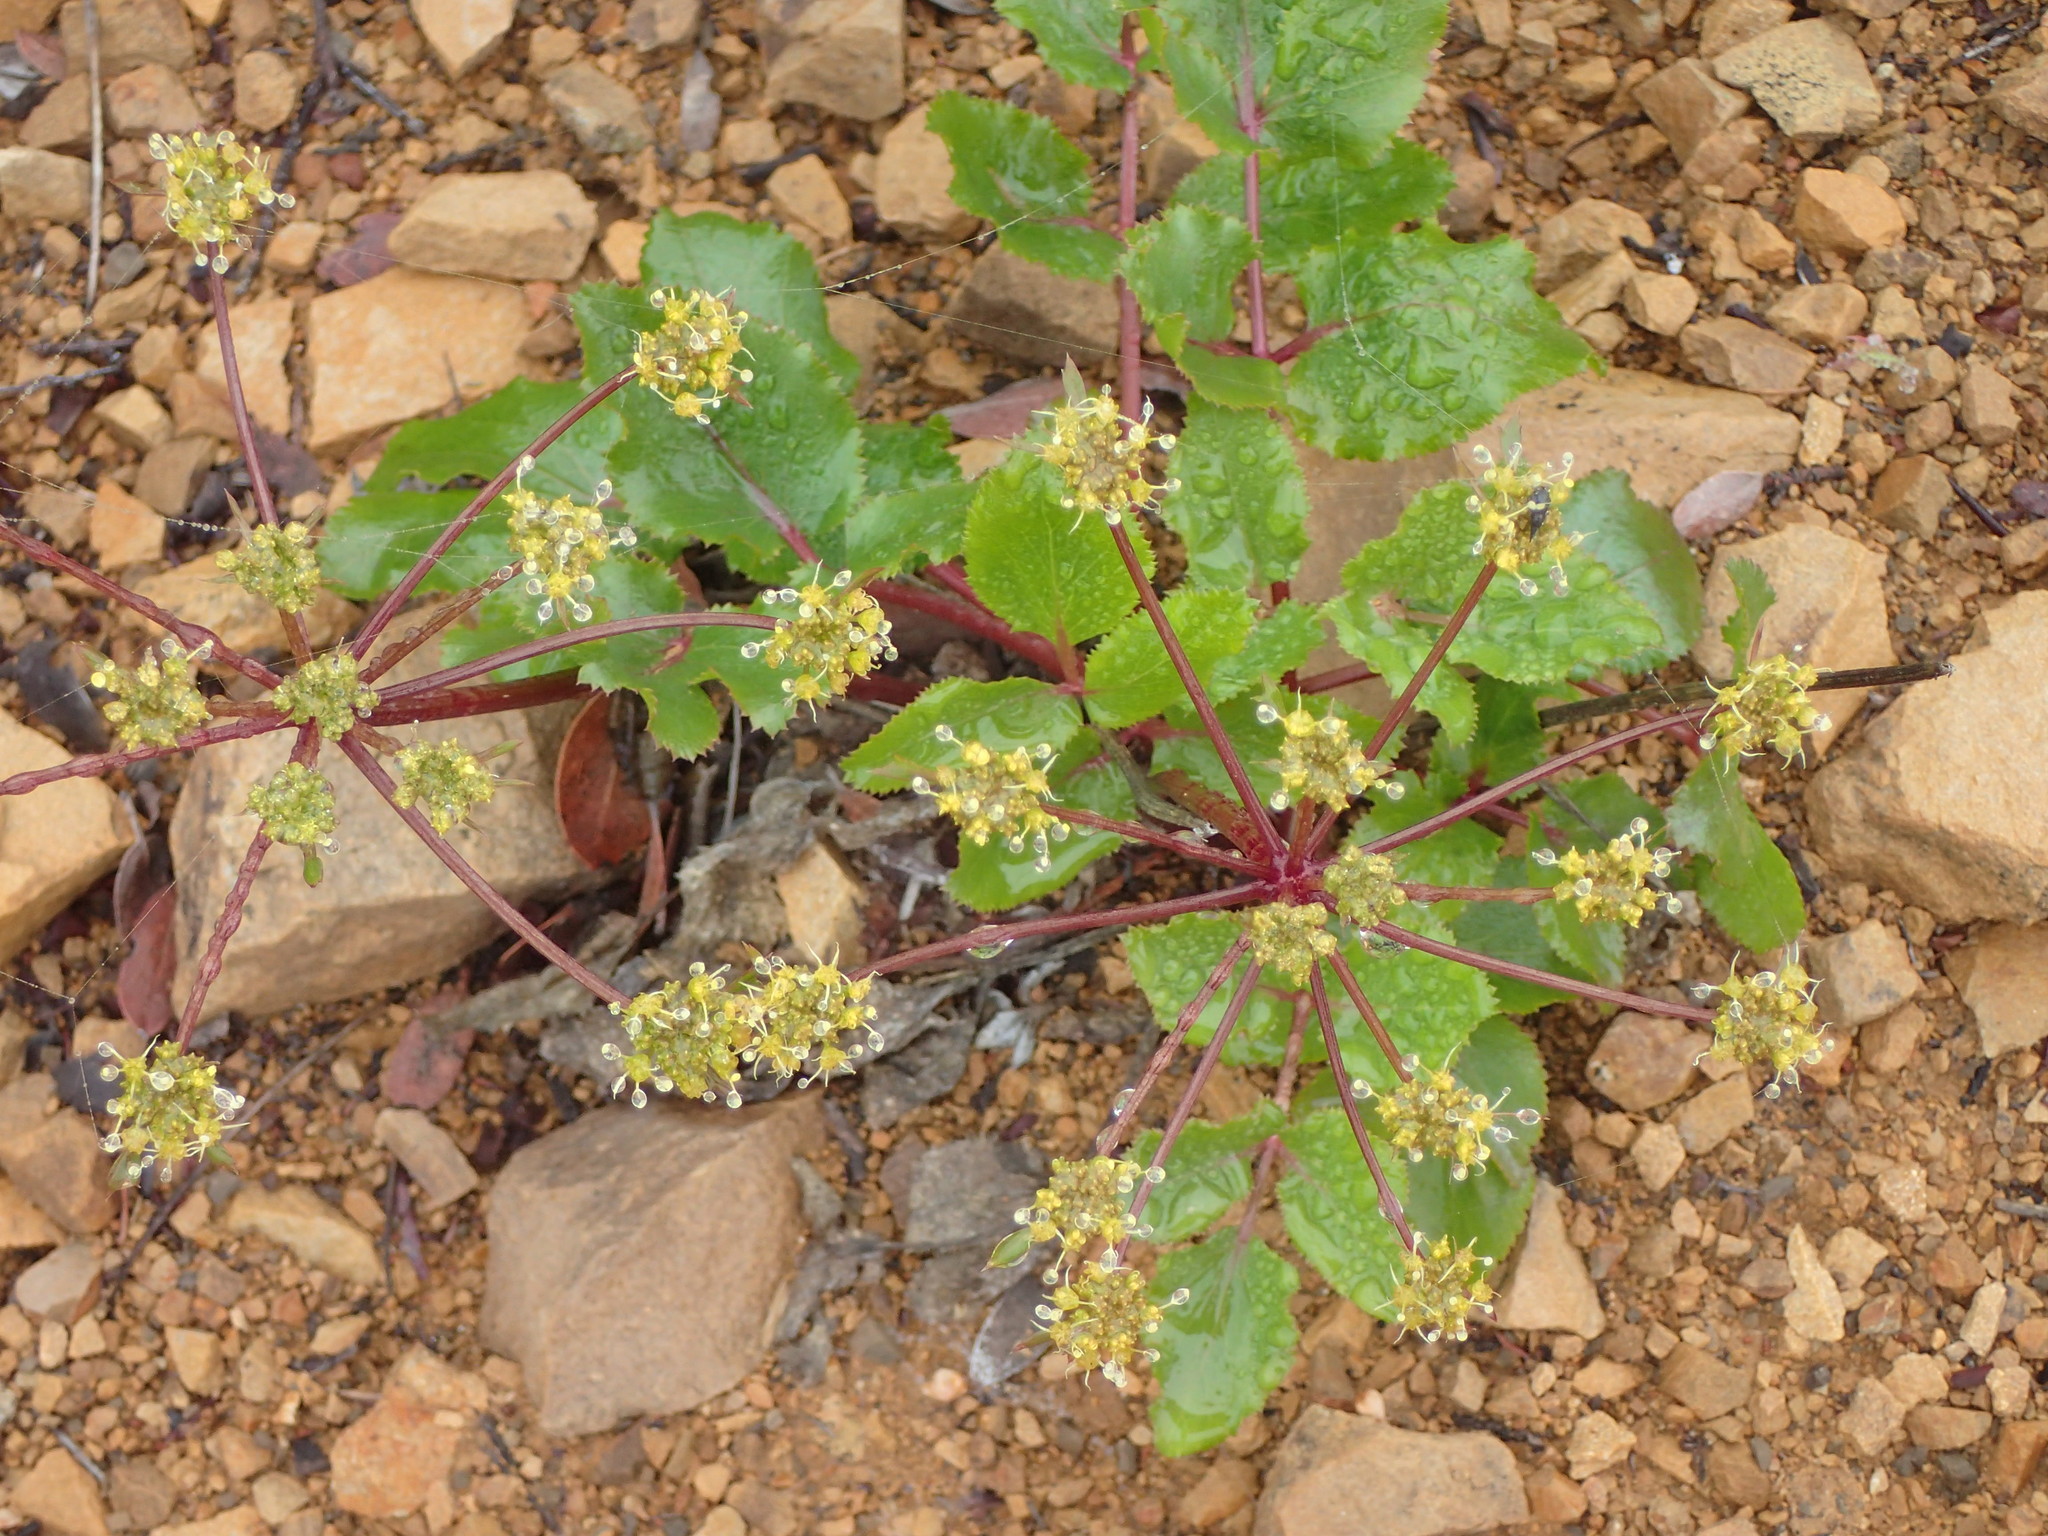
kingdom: Plantae
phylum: Tracheophyta
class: Magnoliopsida
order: Apiales
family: Apiaceae
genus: Tauschia
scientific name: Tauschia arguta
